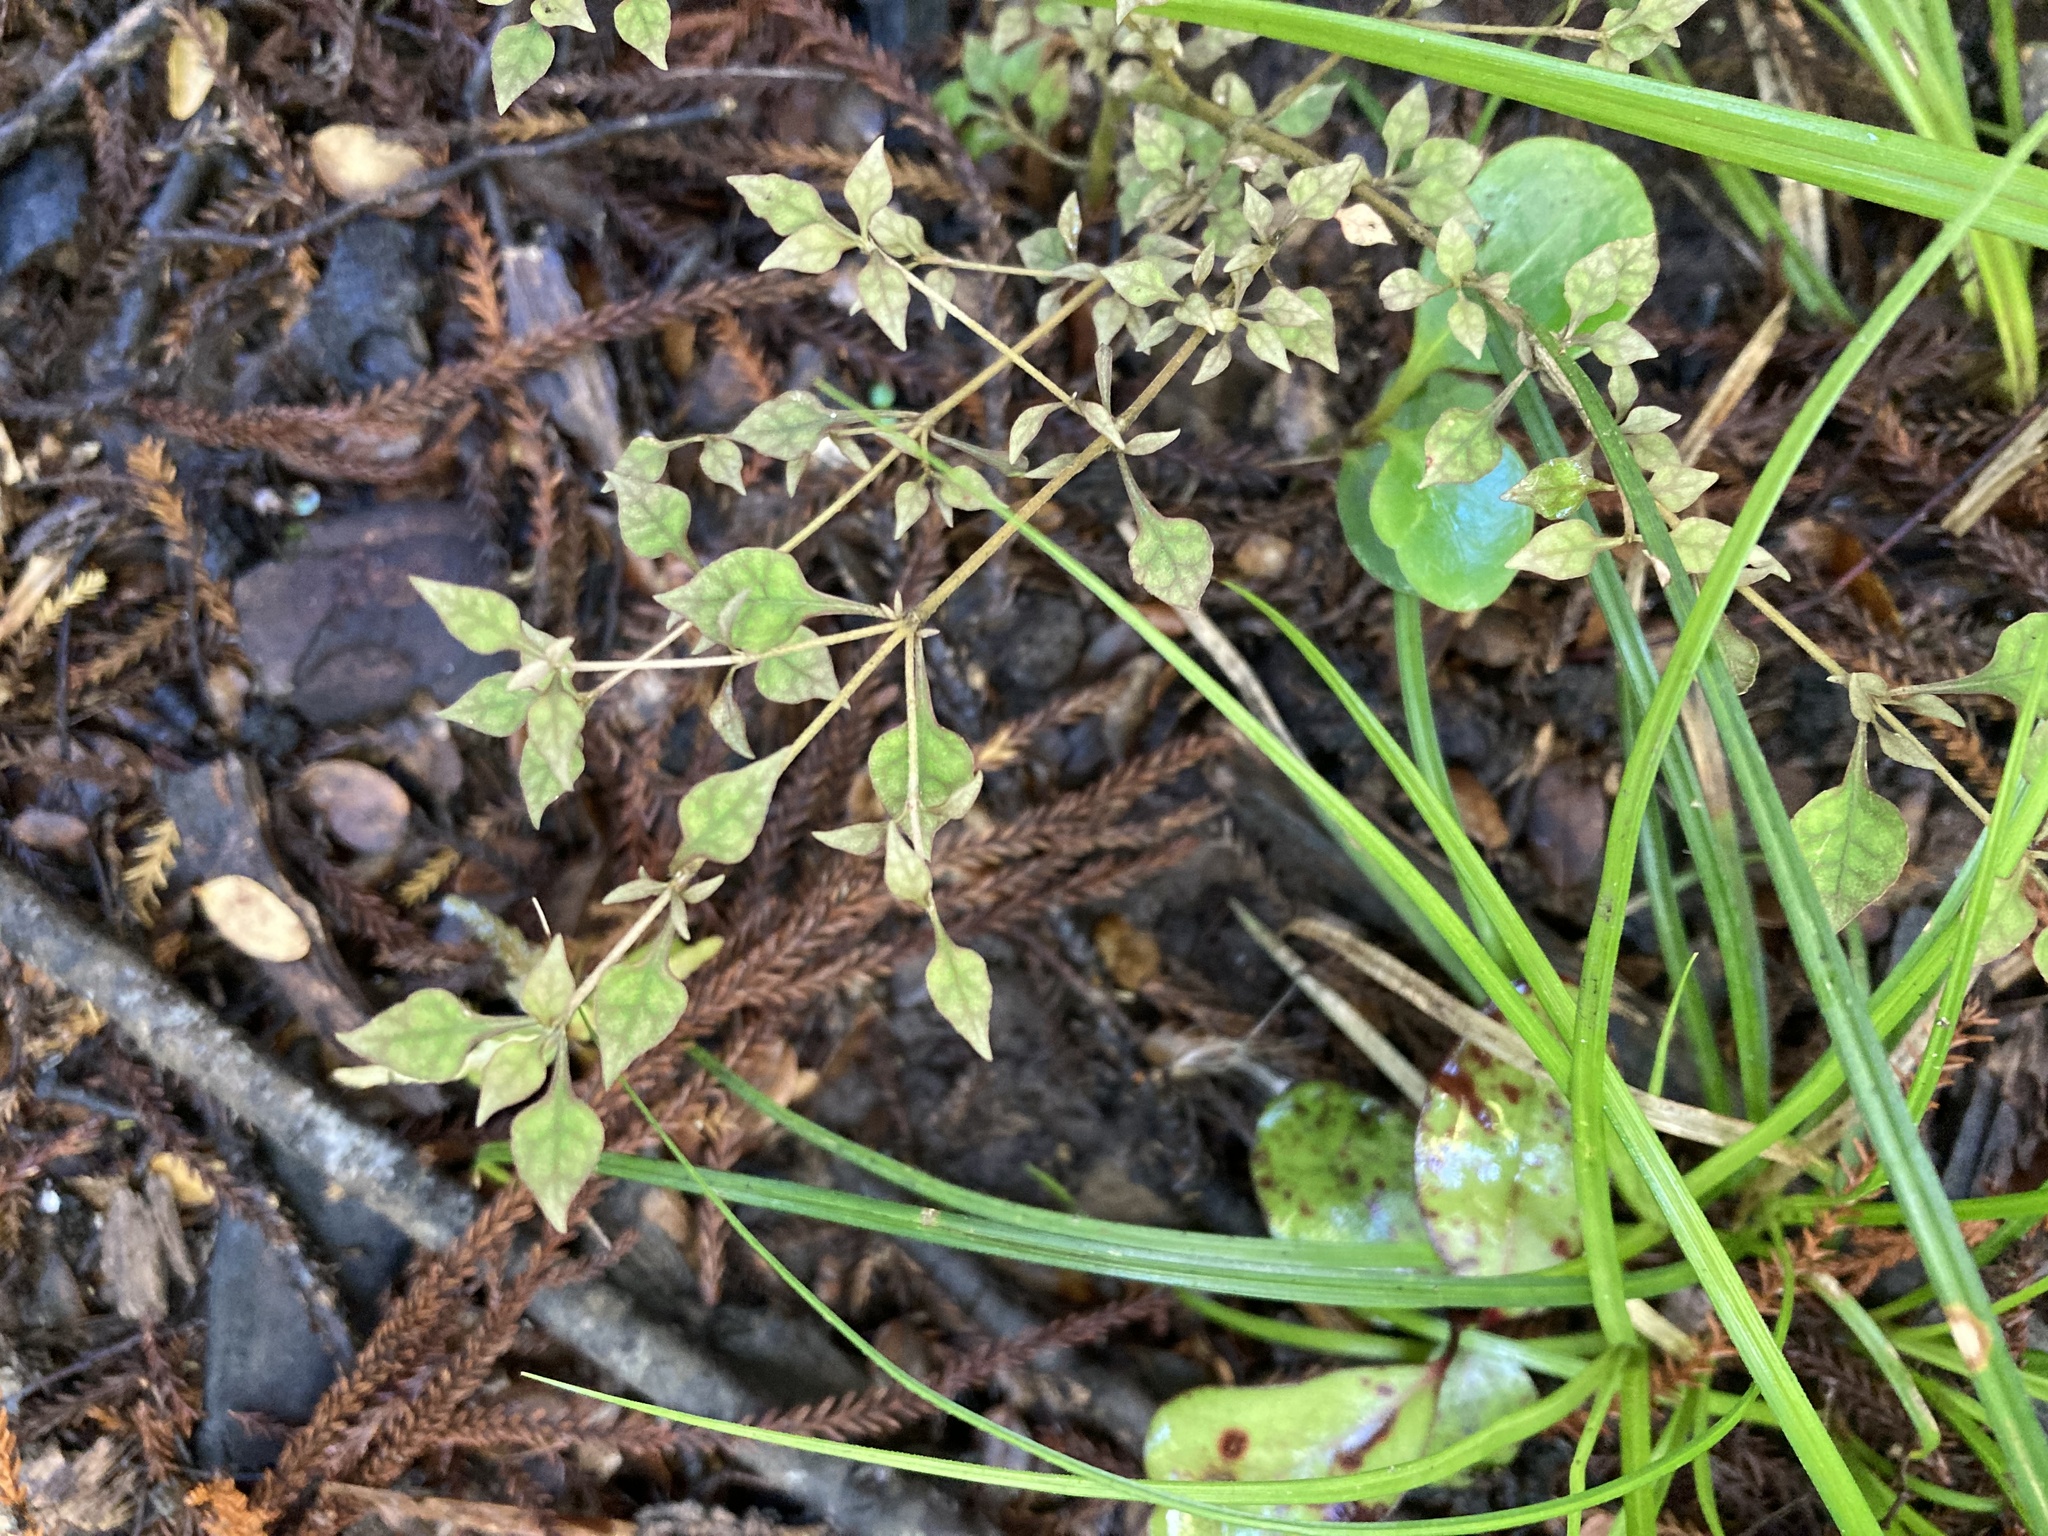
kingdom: Plantae
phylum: Tracheophyta
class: Magnoliopsida
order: Gentianales
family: Rubiaceae
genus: Coprosma
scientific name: Coprosma areolata
